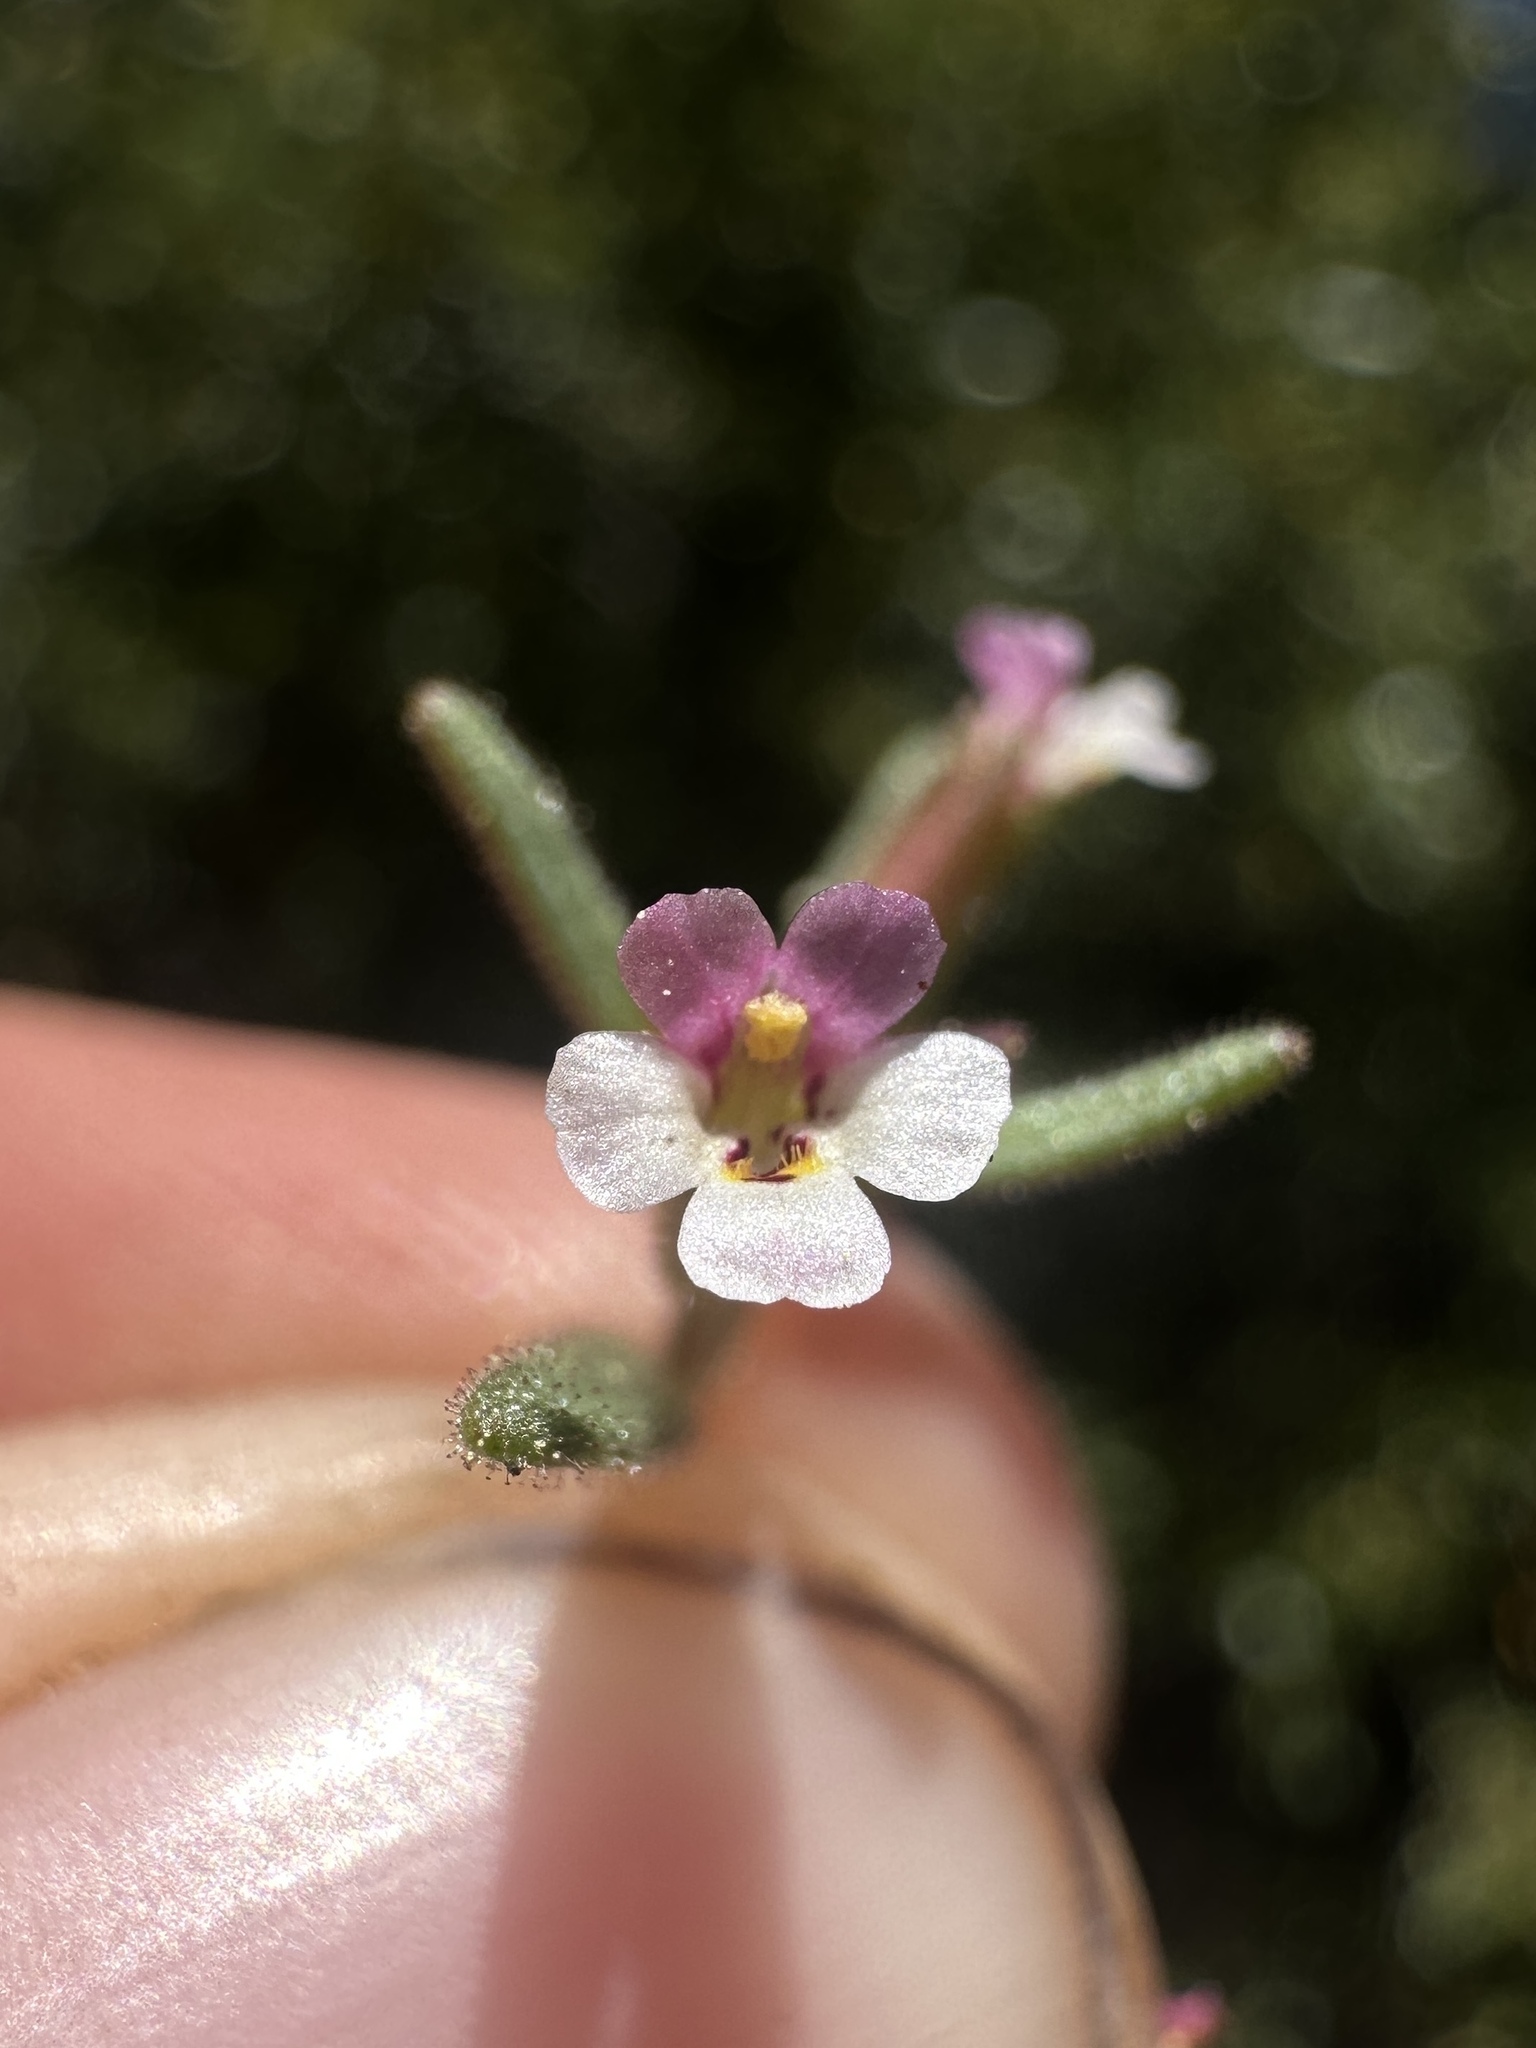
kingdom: Plantae
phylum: Tracheophyta
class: Magnoliopsida
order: Lamiales
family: Phrymaceae
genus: Erythranthe
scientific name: Erythranthe breweri
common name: Brewer's monkeyflower
